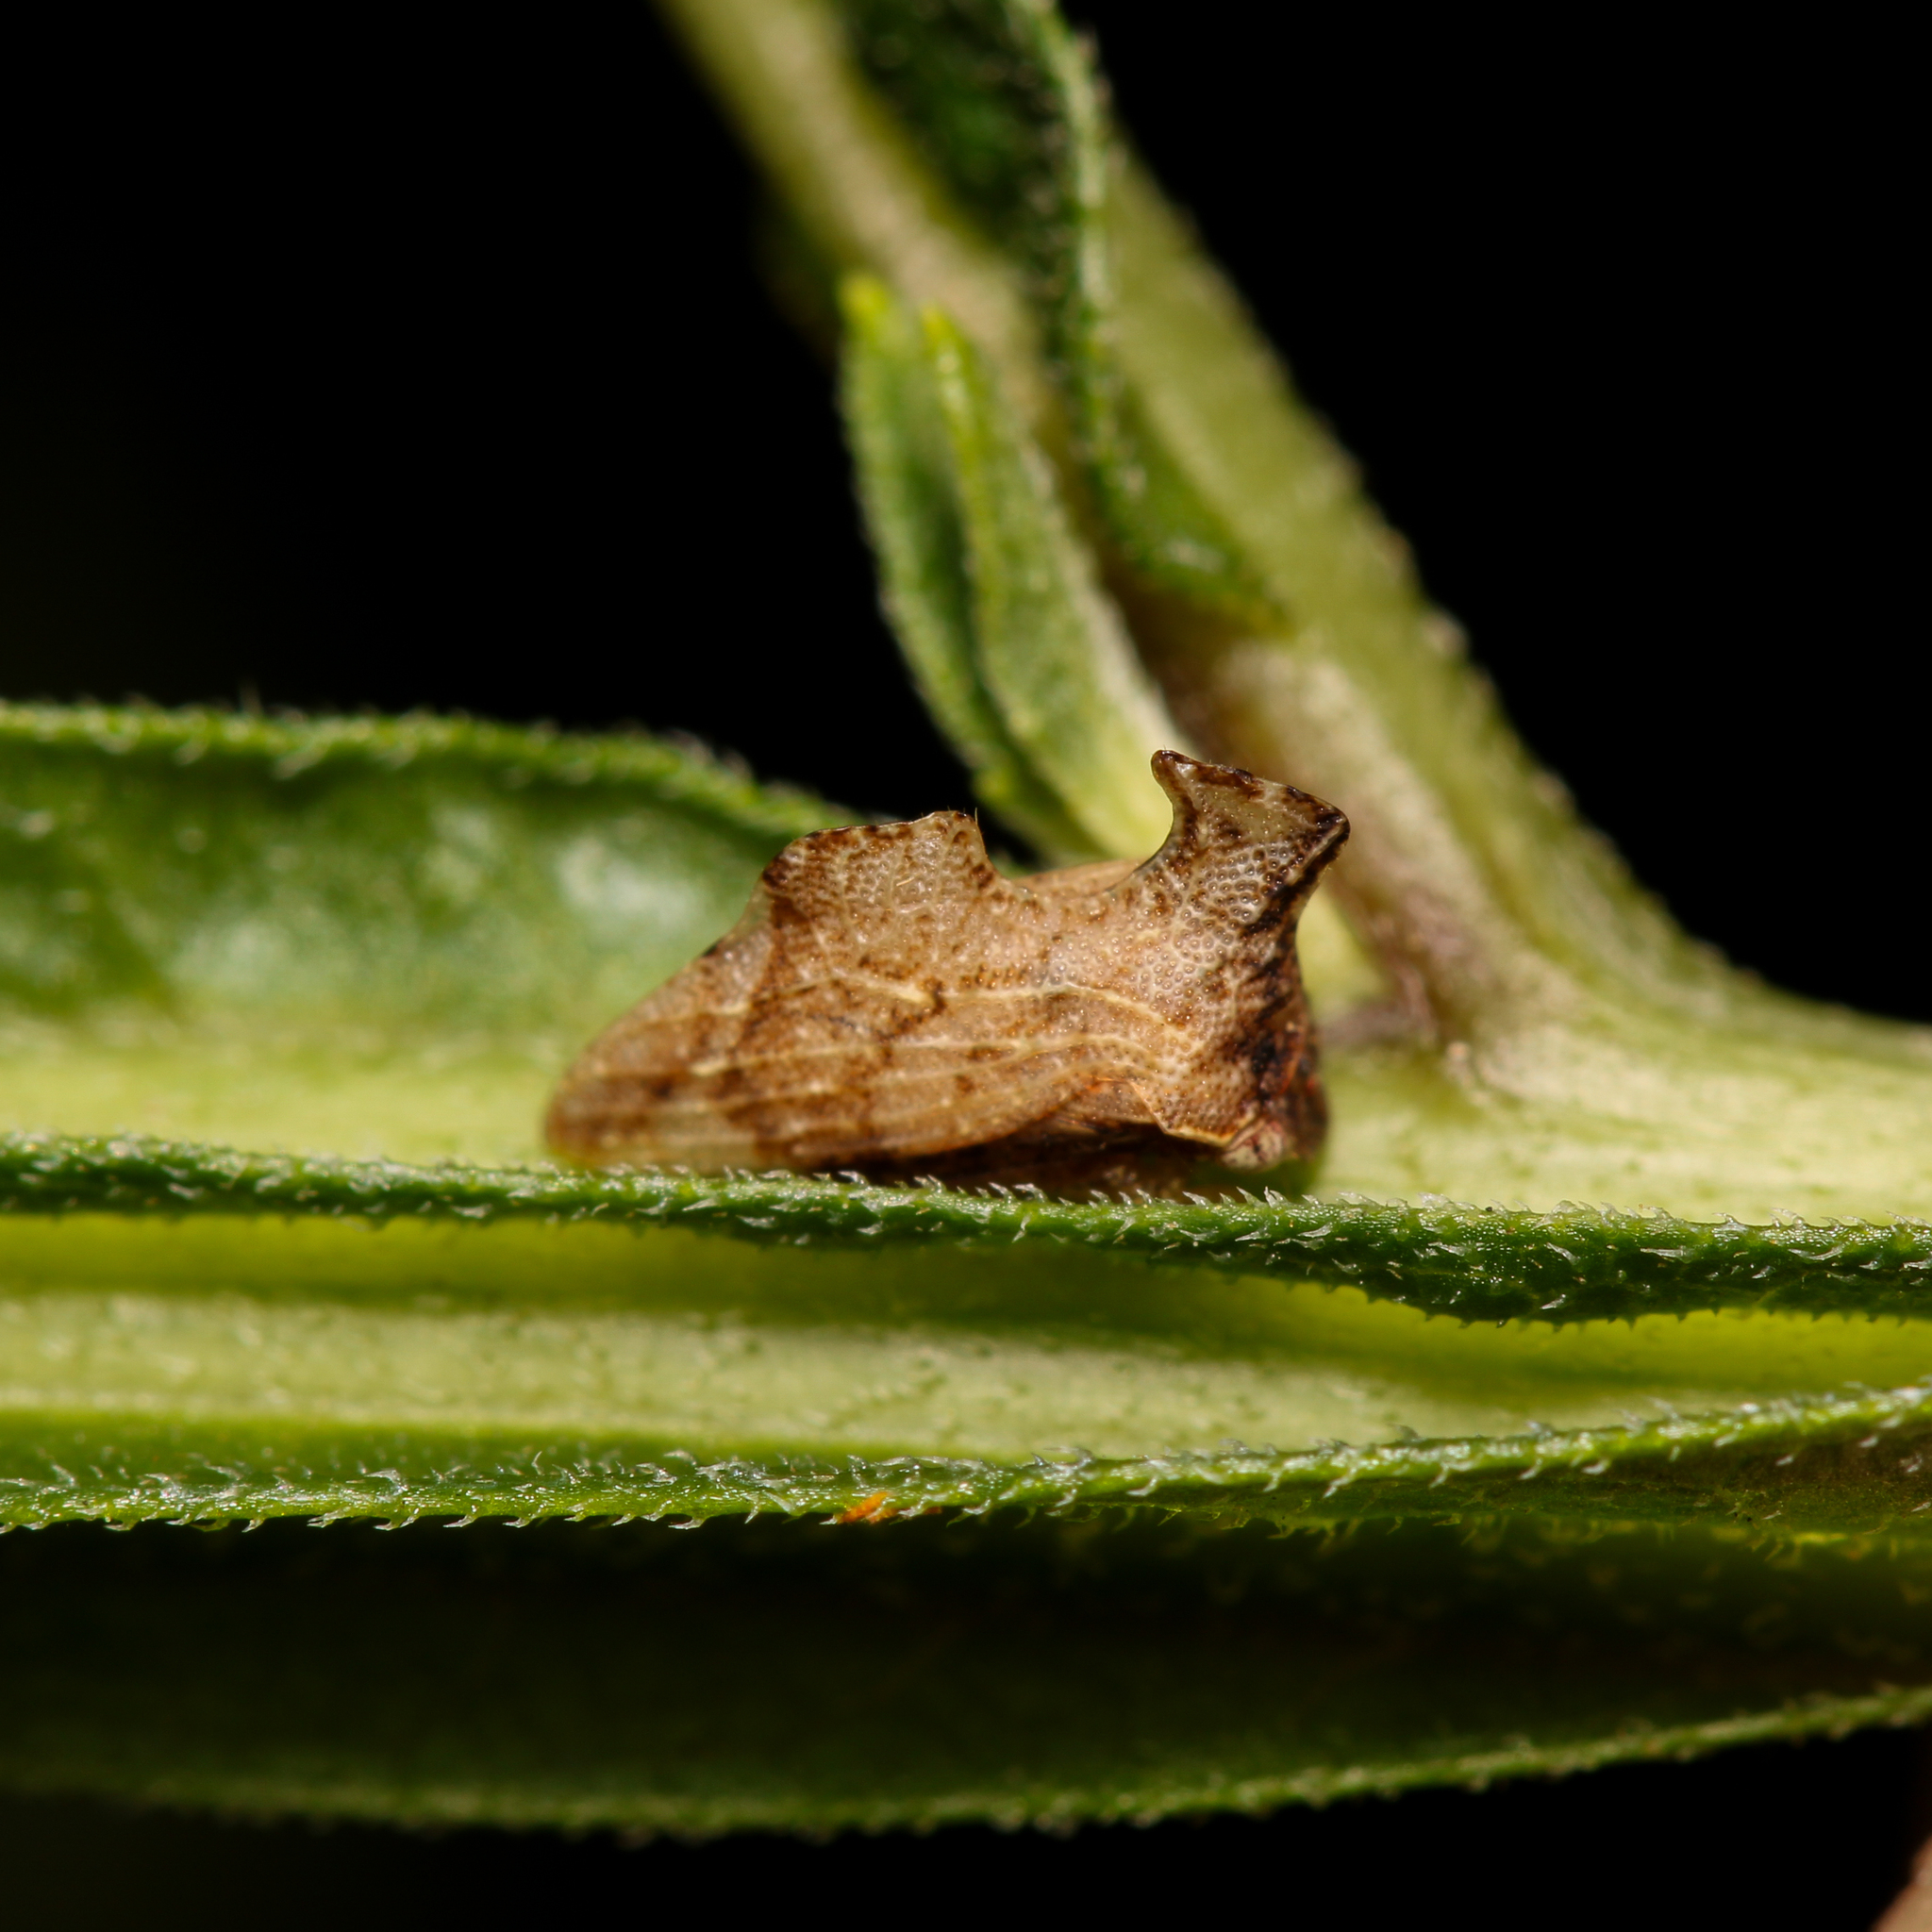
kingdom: Animalia
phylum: Arthropoda
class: Insecta
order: Hemiptera
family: Membracidae
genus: Entylia
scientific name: Entylia carinata
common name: Keeled treehopper
